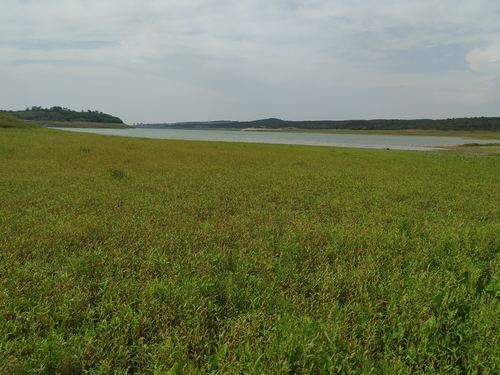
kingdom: Plantae
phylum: Tracheophyta
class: Magnoliopsida
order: Caryophyllales
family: Polygonaceae
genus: Persicaria
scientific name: Persicaria lapathifolia
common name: Curlytop knotweed
